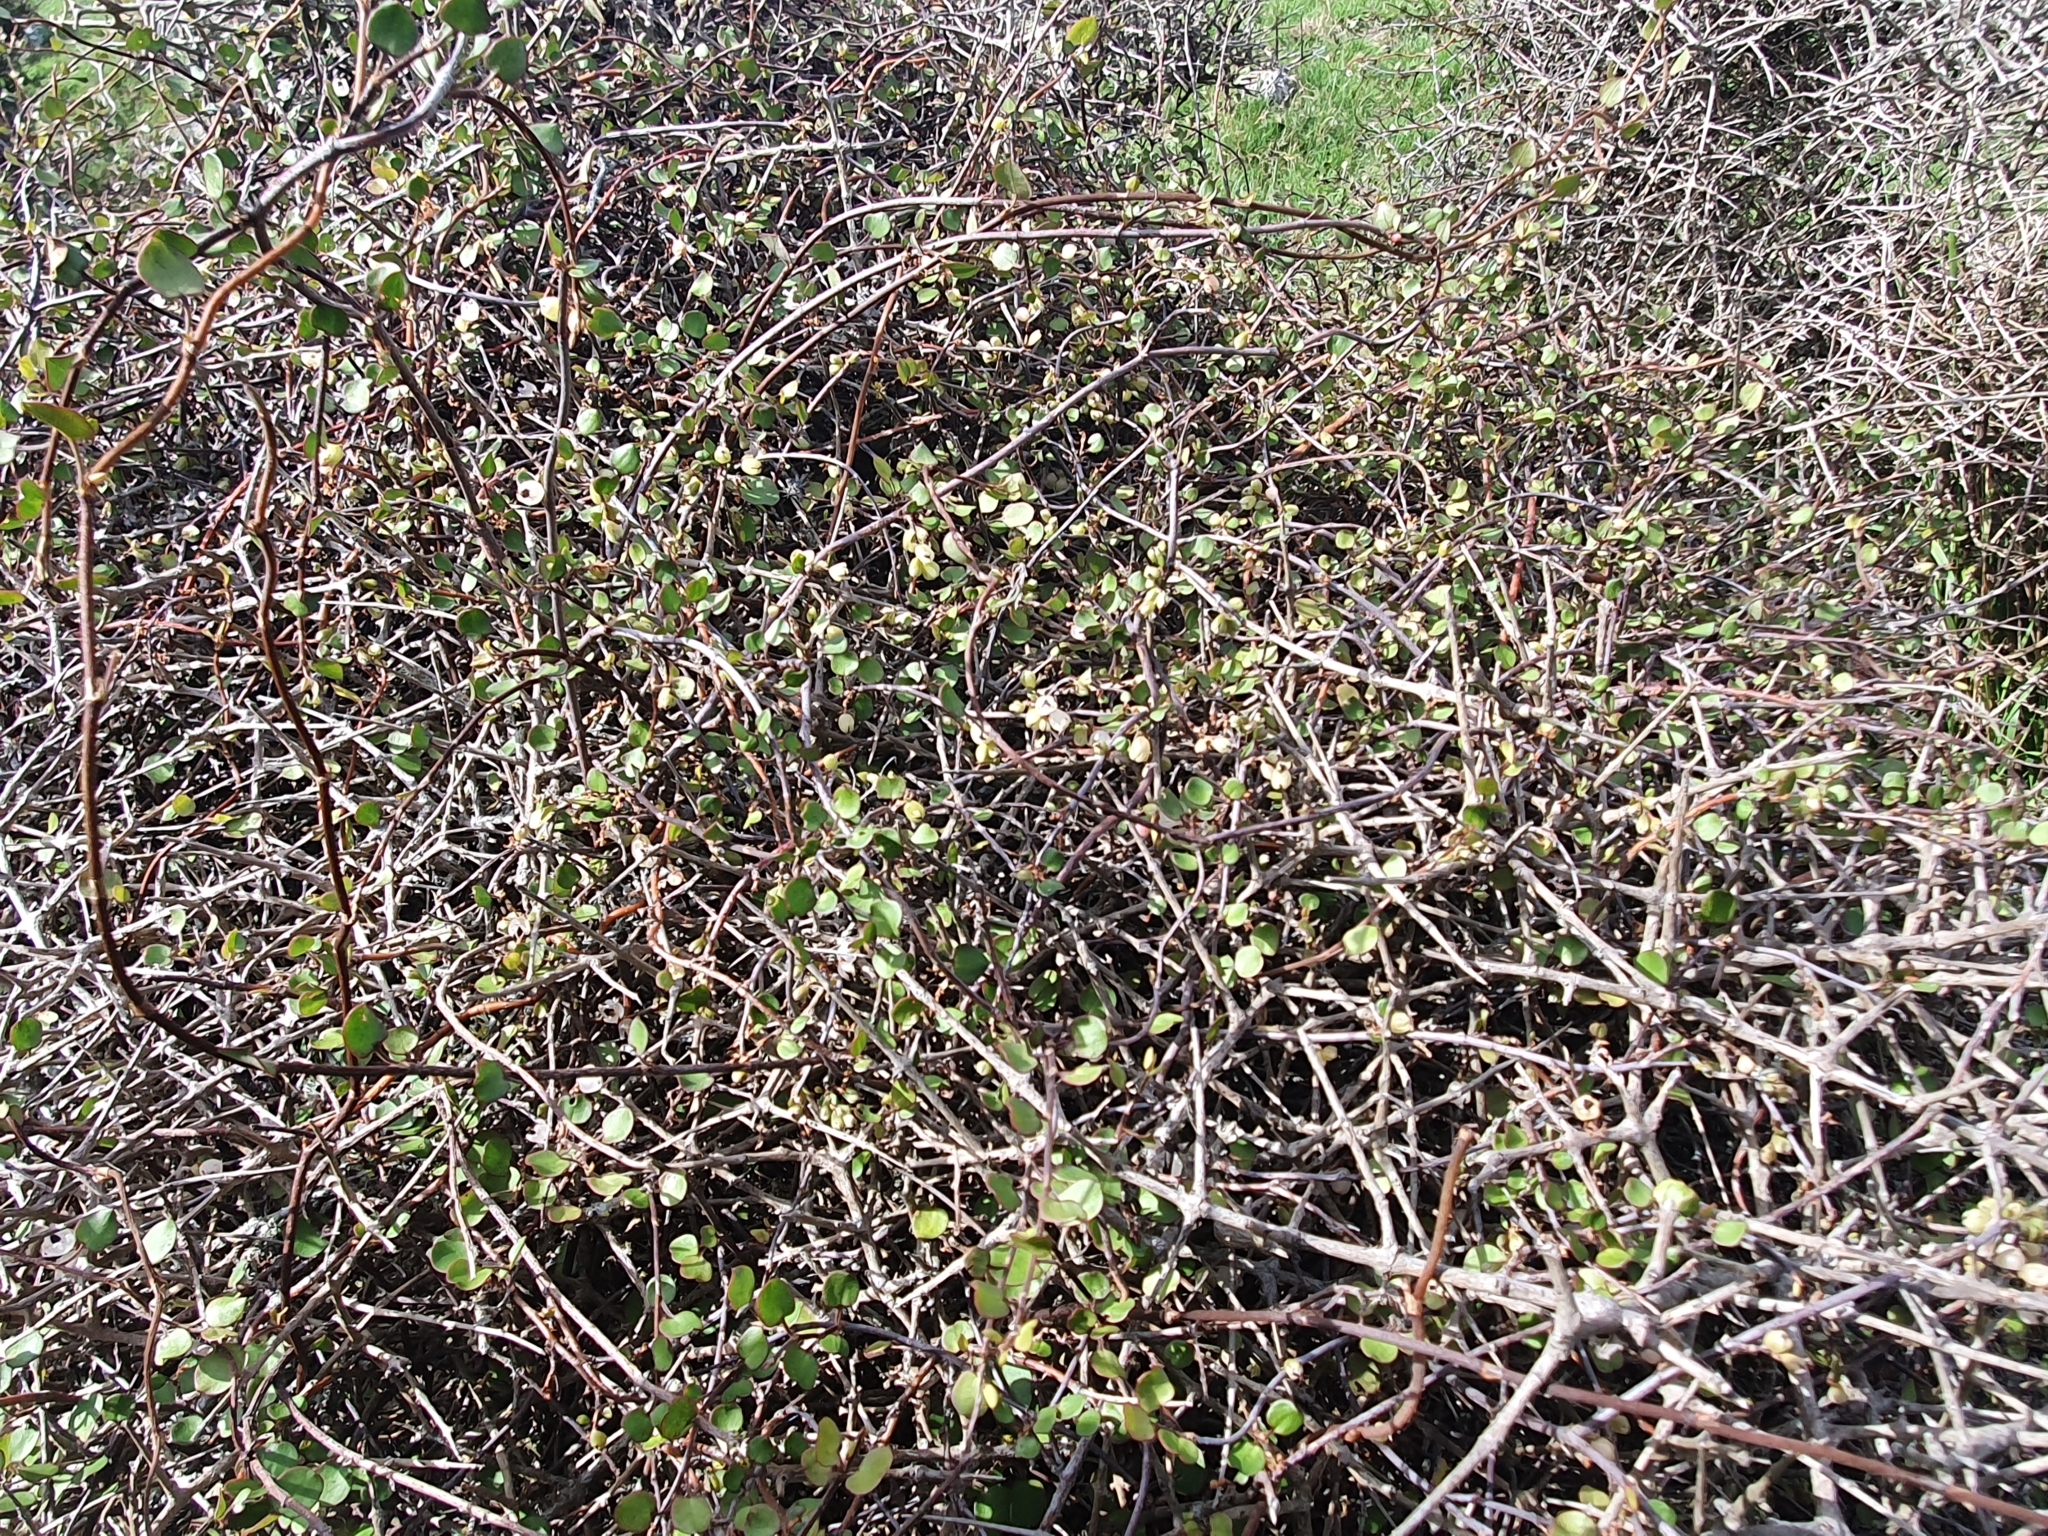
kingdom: Plantae
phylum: Tracheophyta
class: Magnoliopsida
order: Caryophyllales
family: Polygonaceae
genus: Muehlenbeckia
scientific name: Muehlenbeckia complexa
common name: Wireplant
